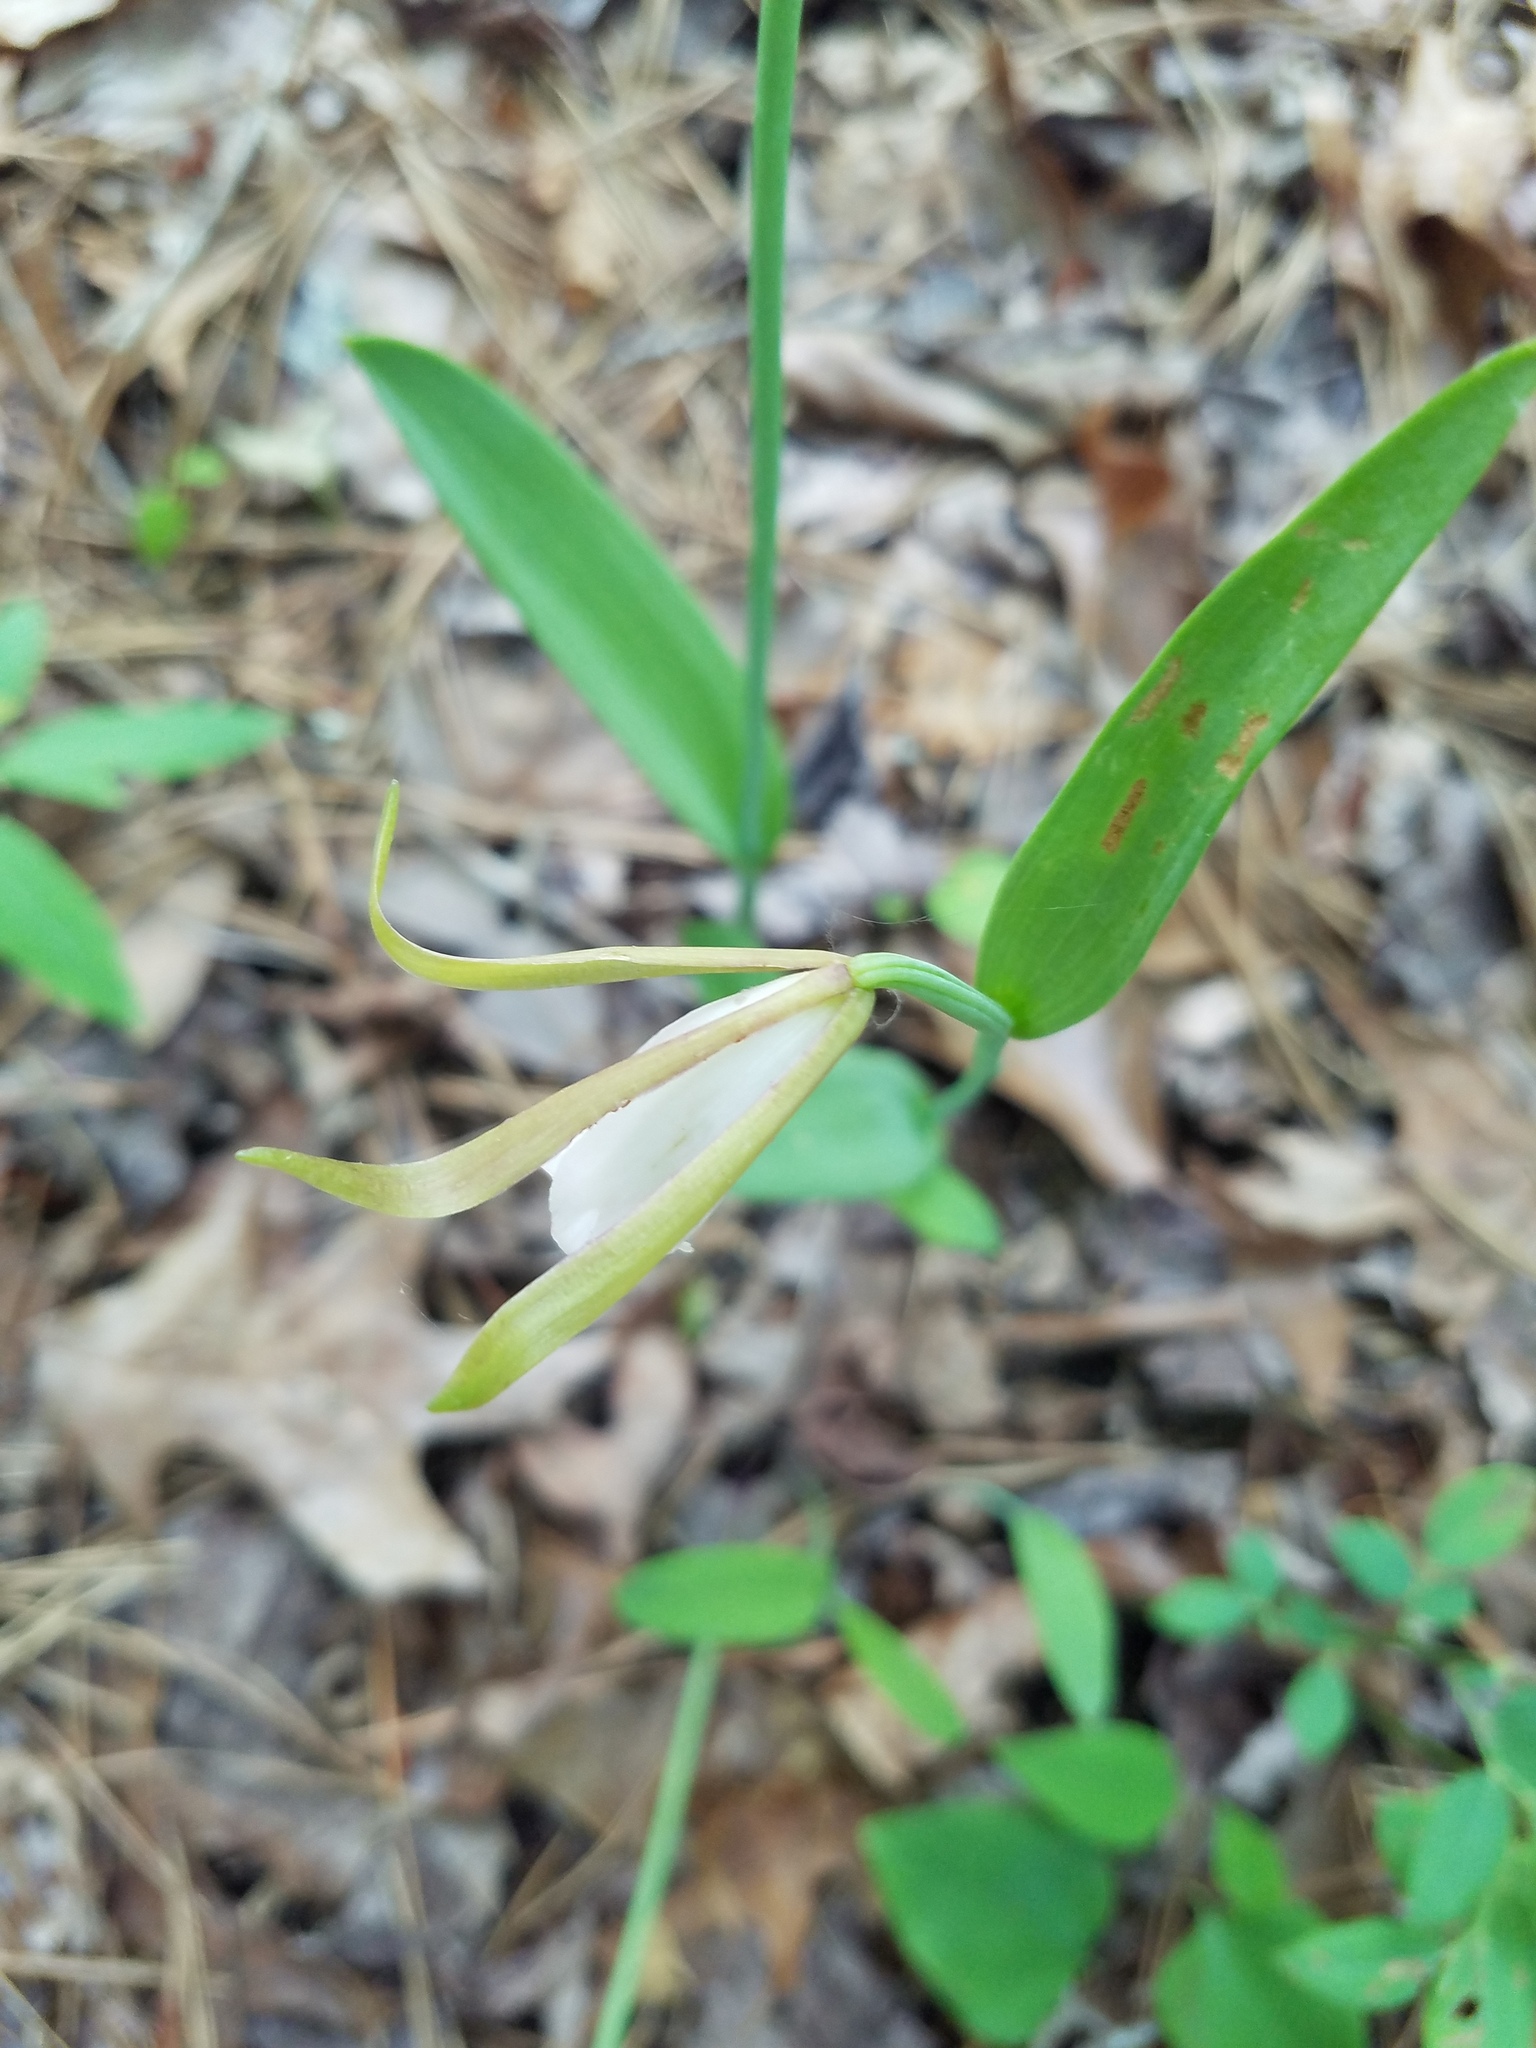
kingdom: Plantae
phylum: Tracheophyta
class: Liliopsida
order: Asparagales
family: Orchidaceae
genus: Cleistesiopsis
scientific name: Cleistesiopsis bifaria
